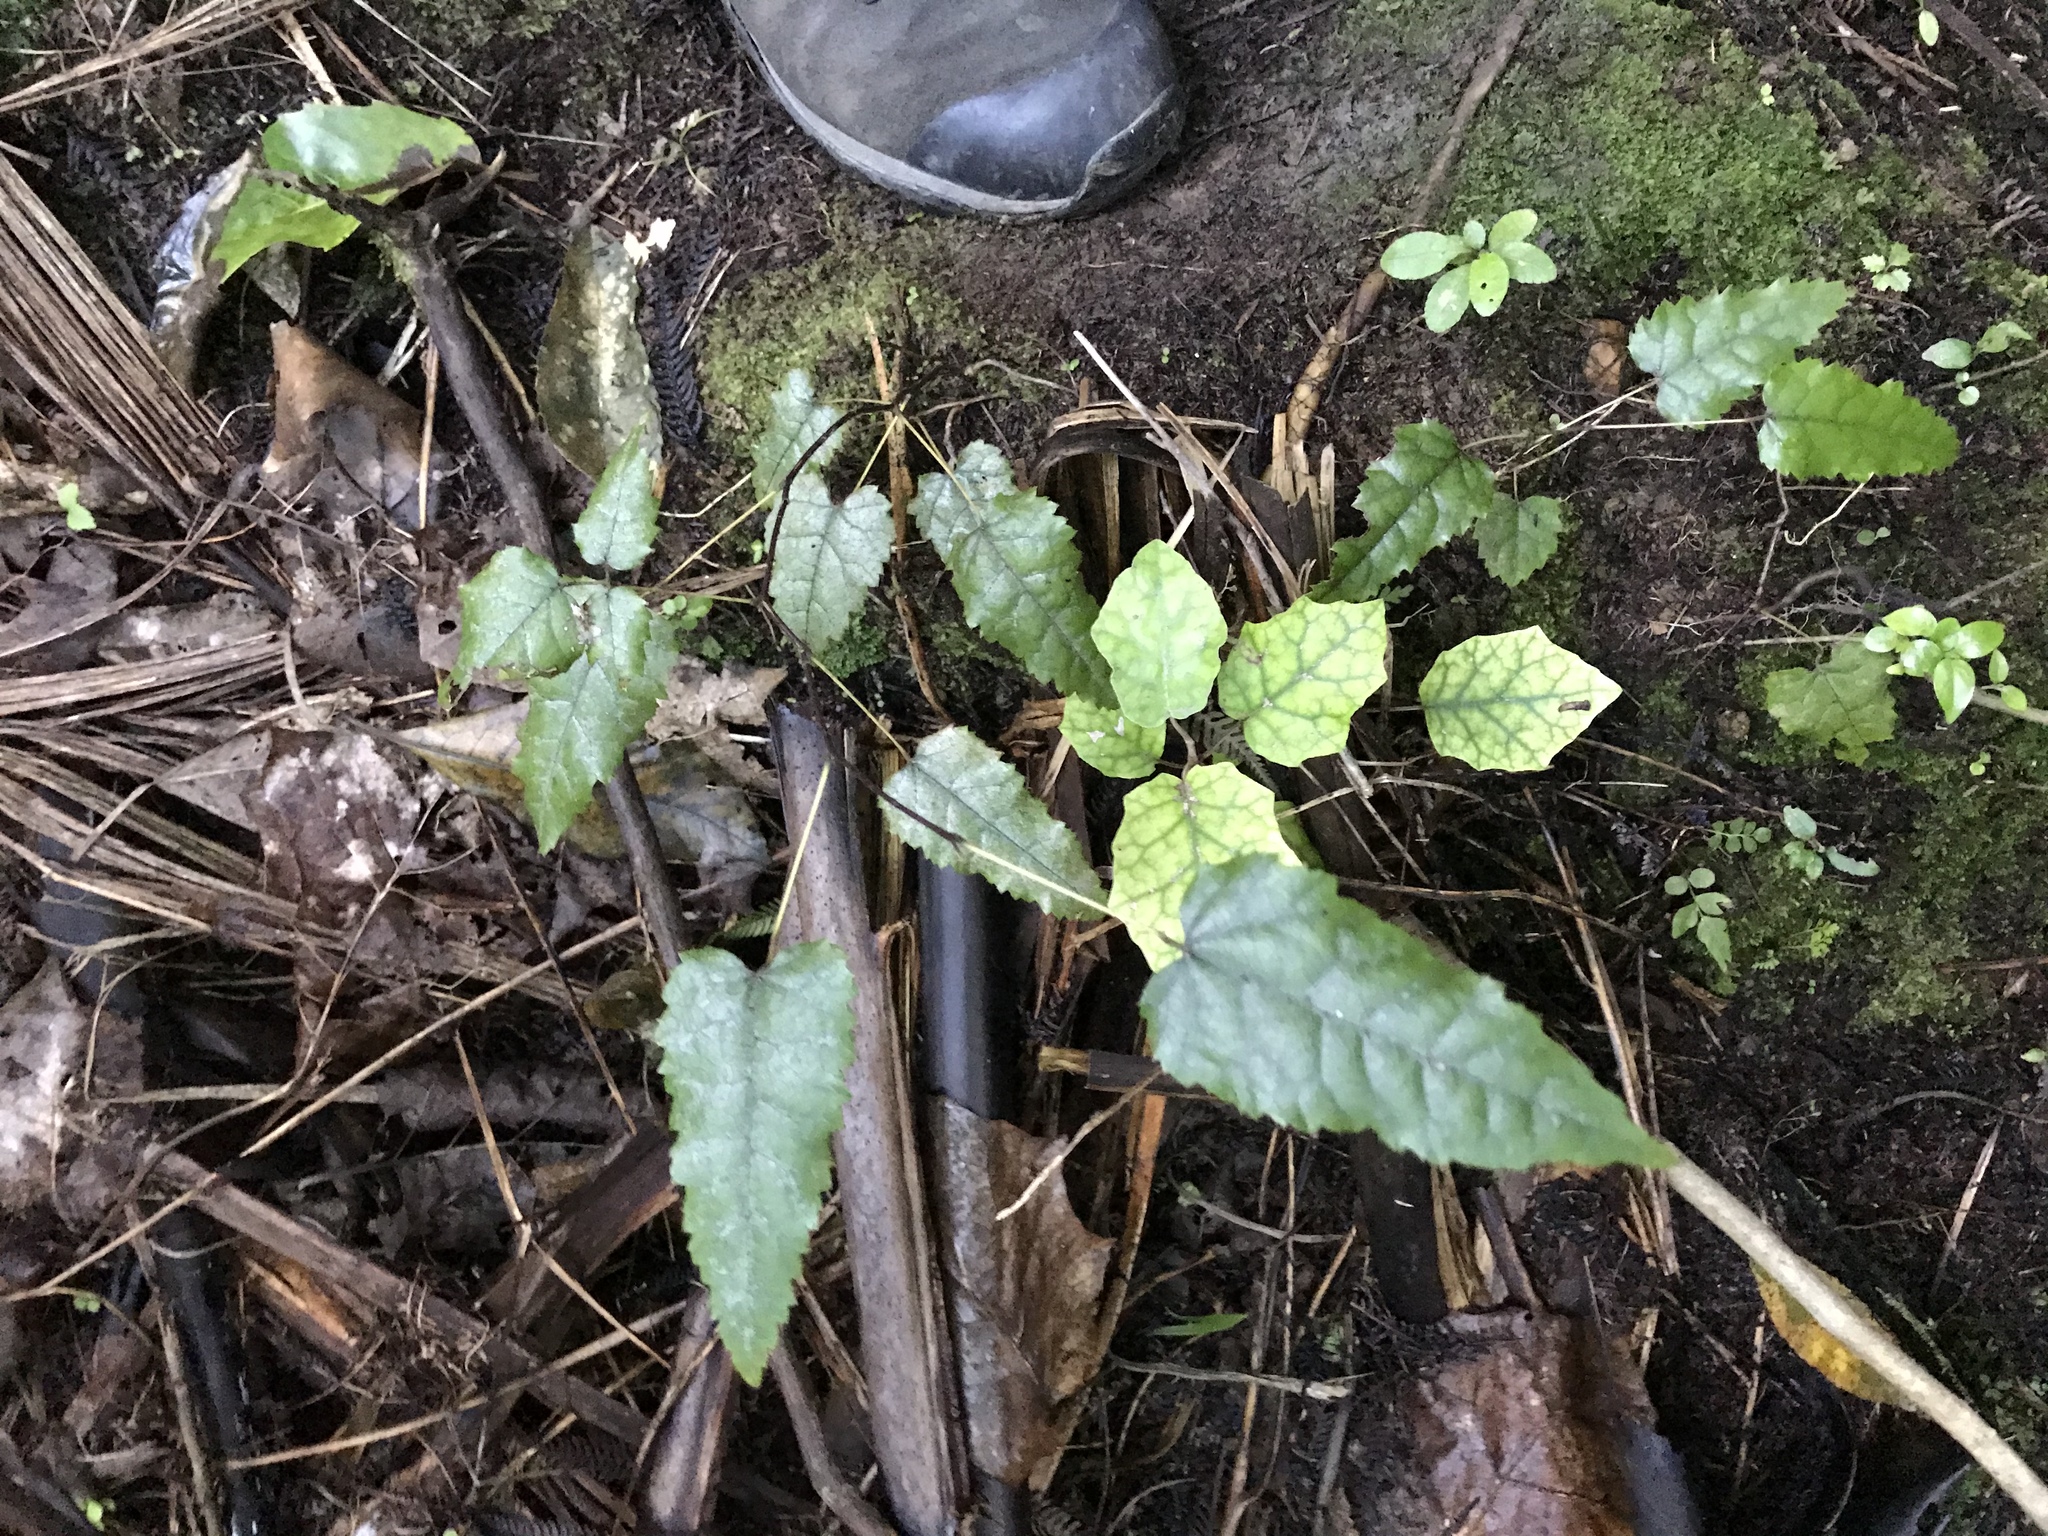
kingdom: Plantae
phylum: Tracheophyta
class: Magnoliopsida
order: Rosales
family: Rosaceae
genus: Rubus
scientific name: Rubus cissoides
